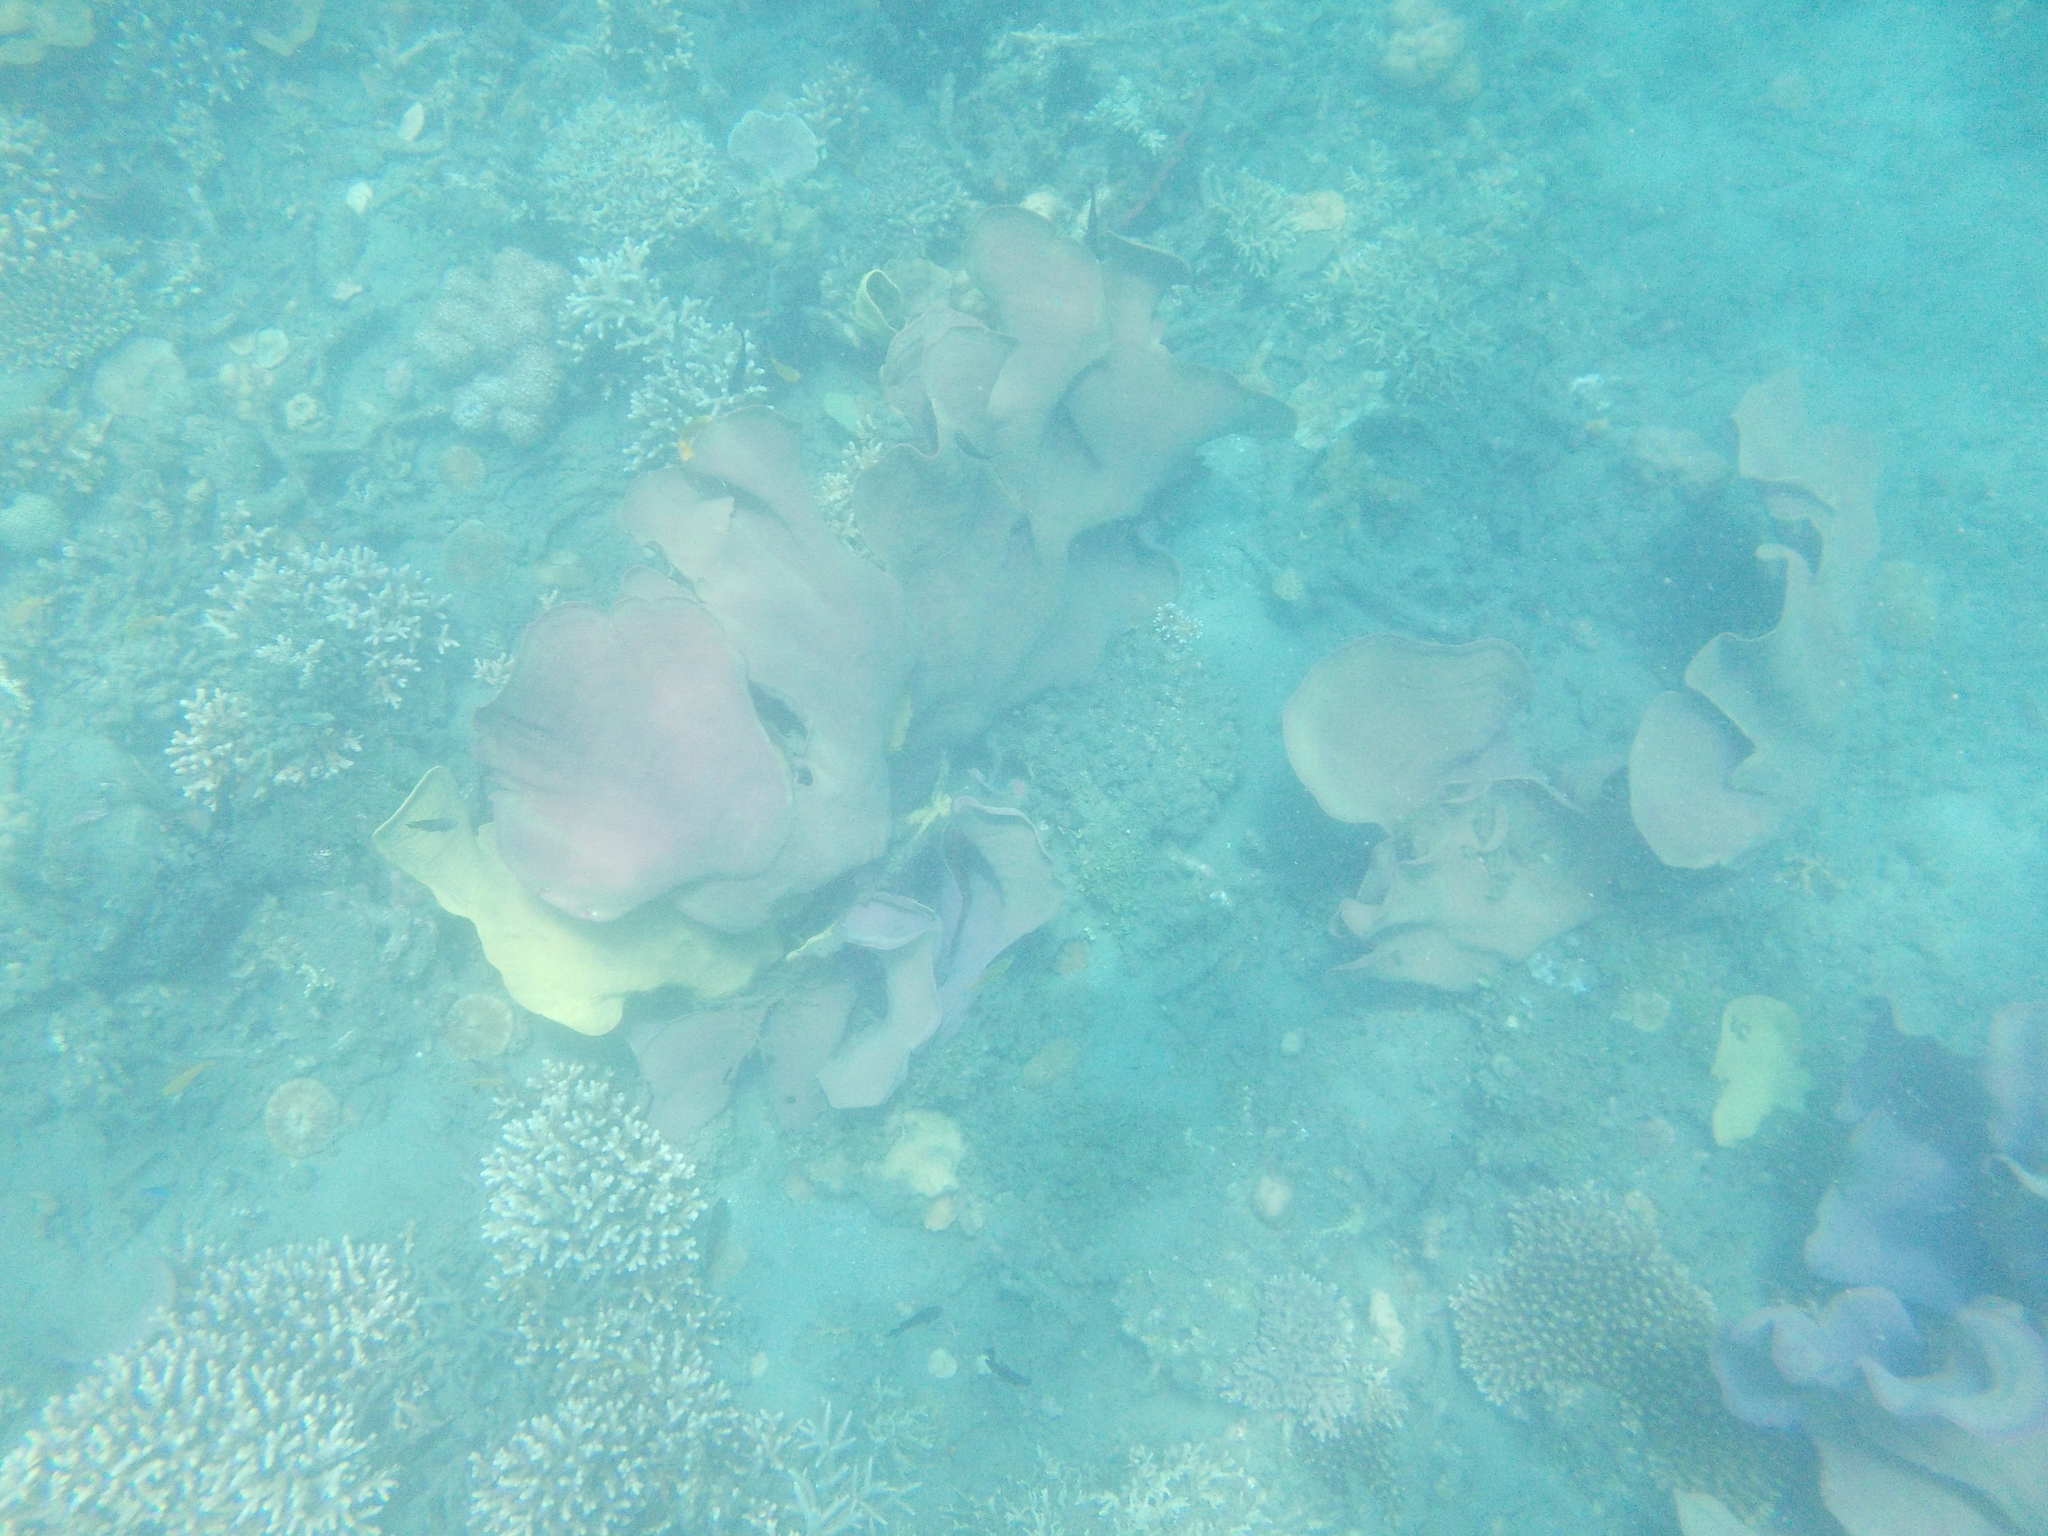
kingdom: Animalia
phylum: Porifera
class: Demospongiae
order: Verongiida
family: Ianthellidae
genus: Ianthella
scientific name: Ianthella basta
